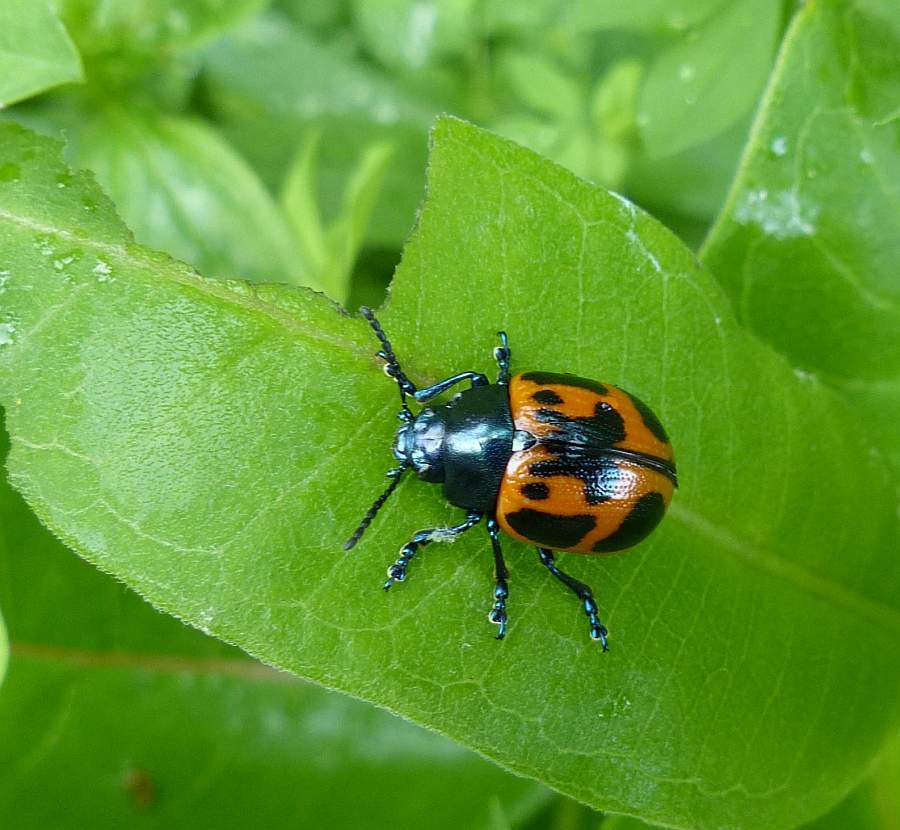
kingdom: Animalia
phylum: Arthropoda
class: Insecta
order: Coleoptera
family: Chrysomelidae
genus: Labidomera
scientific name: Labidomera clivicollis
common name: Swamp milkweed leaf beetle
